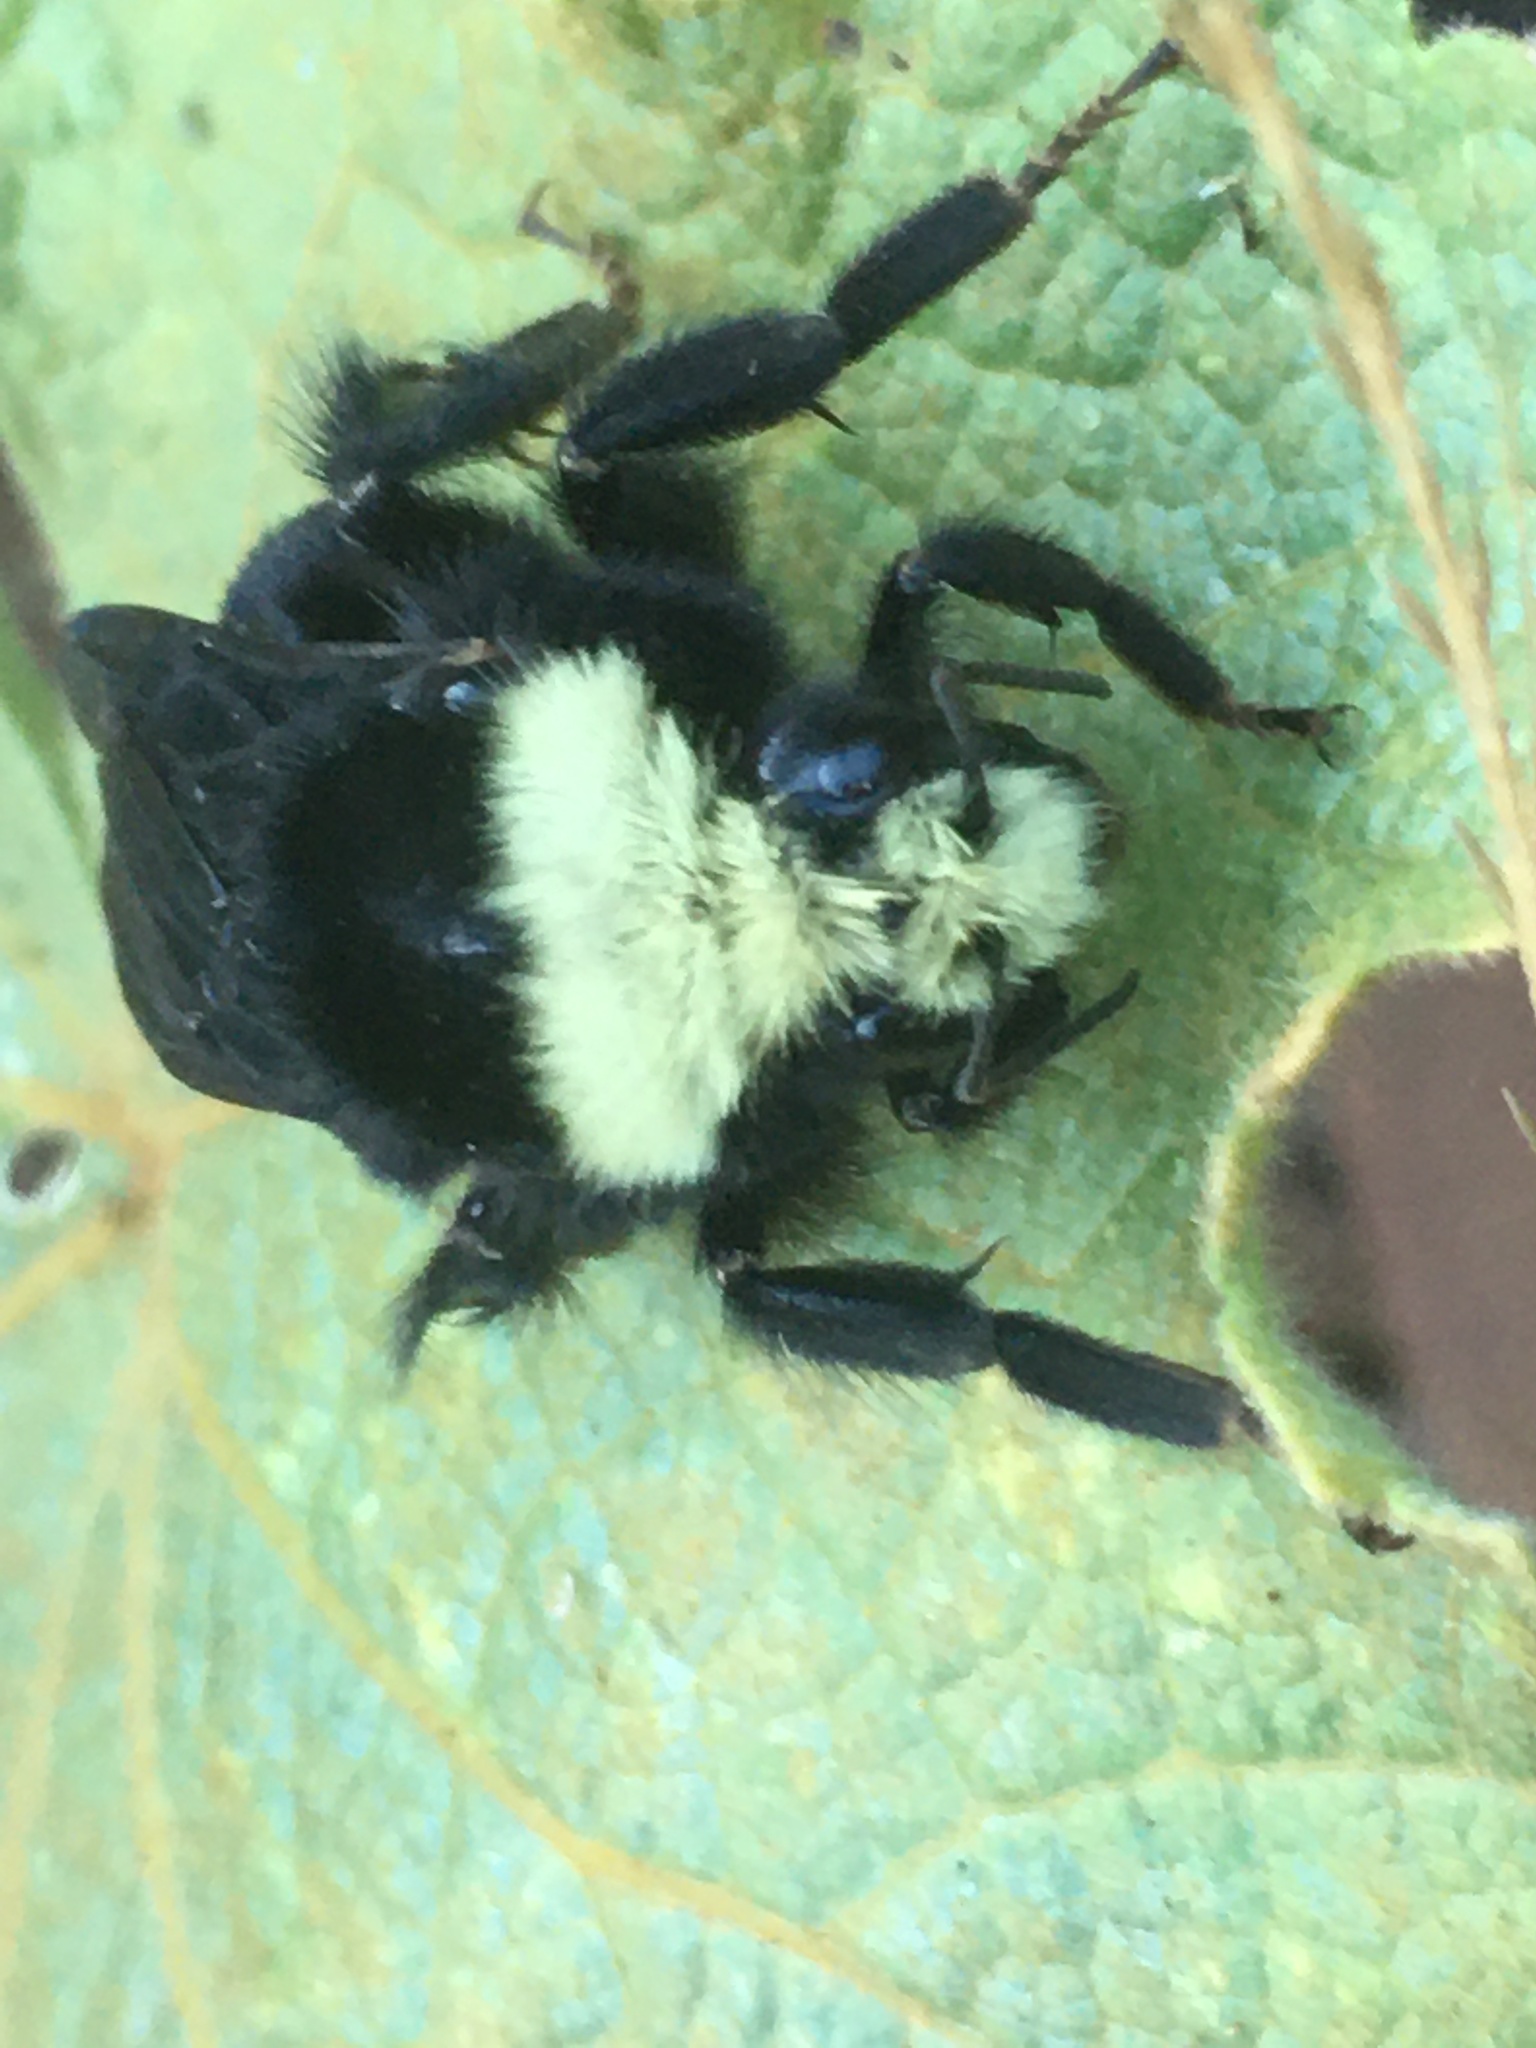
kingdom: Animalia
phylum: Arthropoda
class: Insecta
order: Hymenoptera
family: Apidae
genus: Bombus
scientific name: Bombus vosnesenskii
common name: Vosnesensky bumble bee
